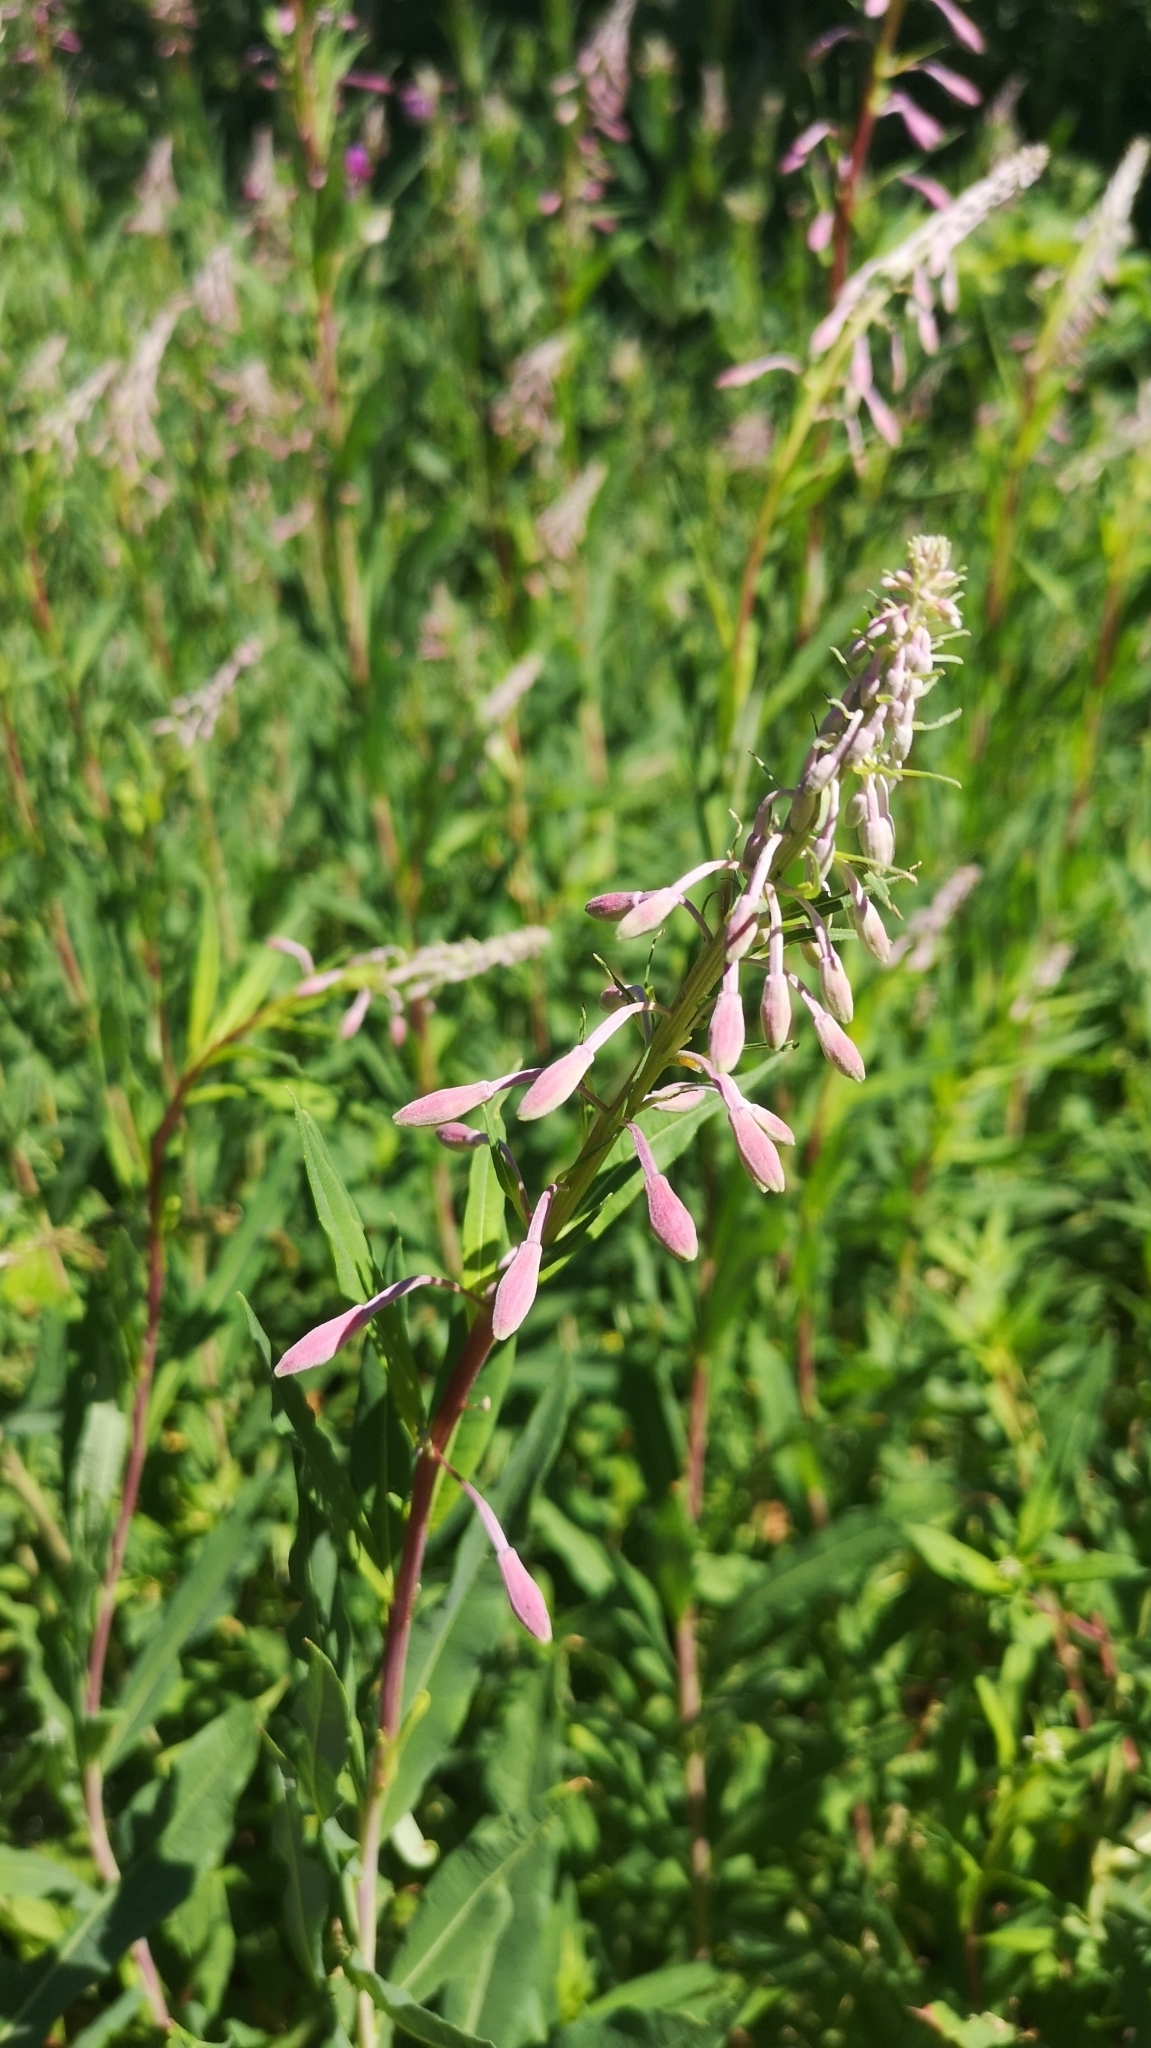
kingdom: Plantae
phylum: Tracheophyta
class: Magnoliopsida
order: Myrtales
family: Onagraceae
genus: Chamaenerion
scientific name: Chamaenerion angustifolium
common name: Fireweed
